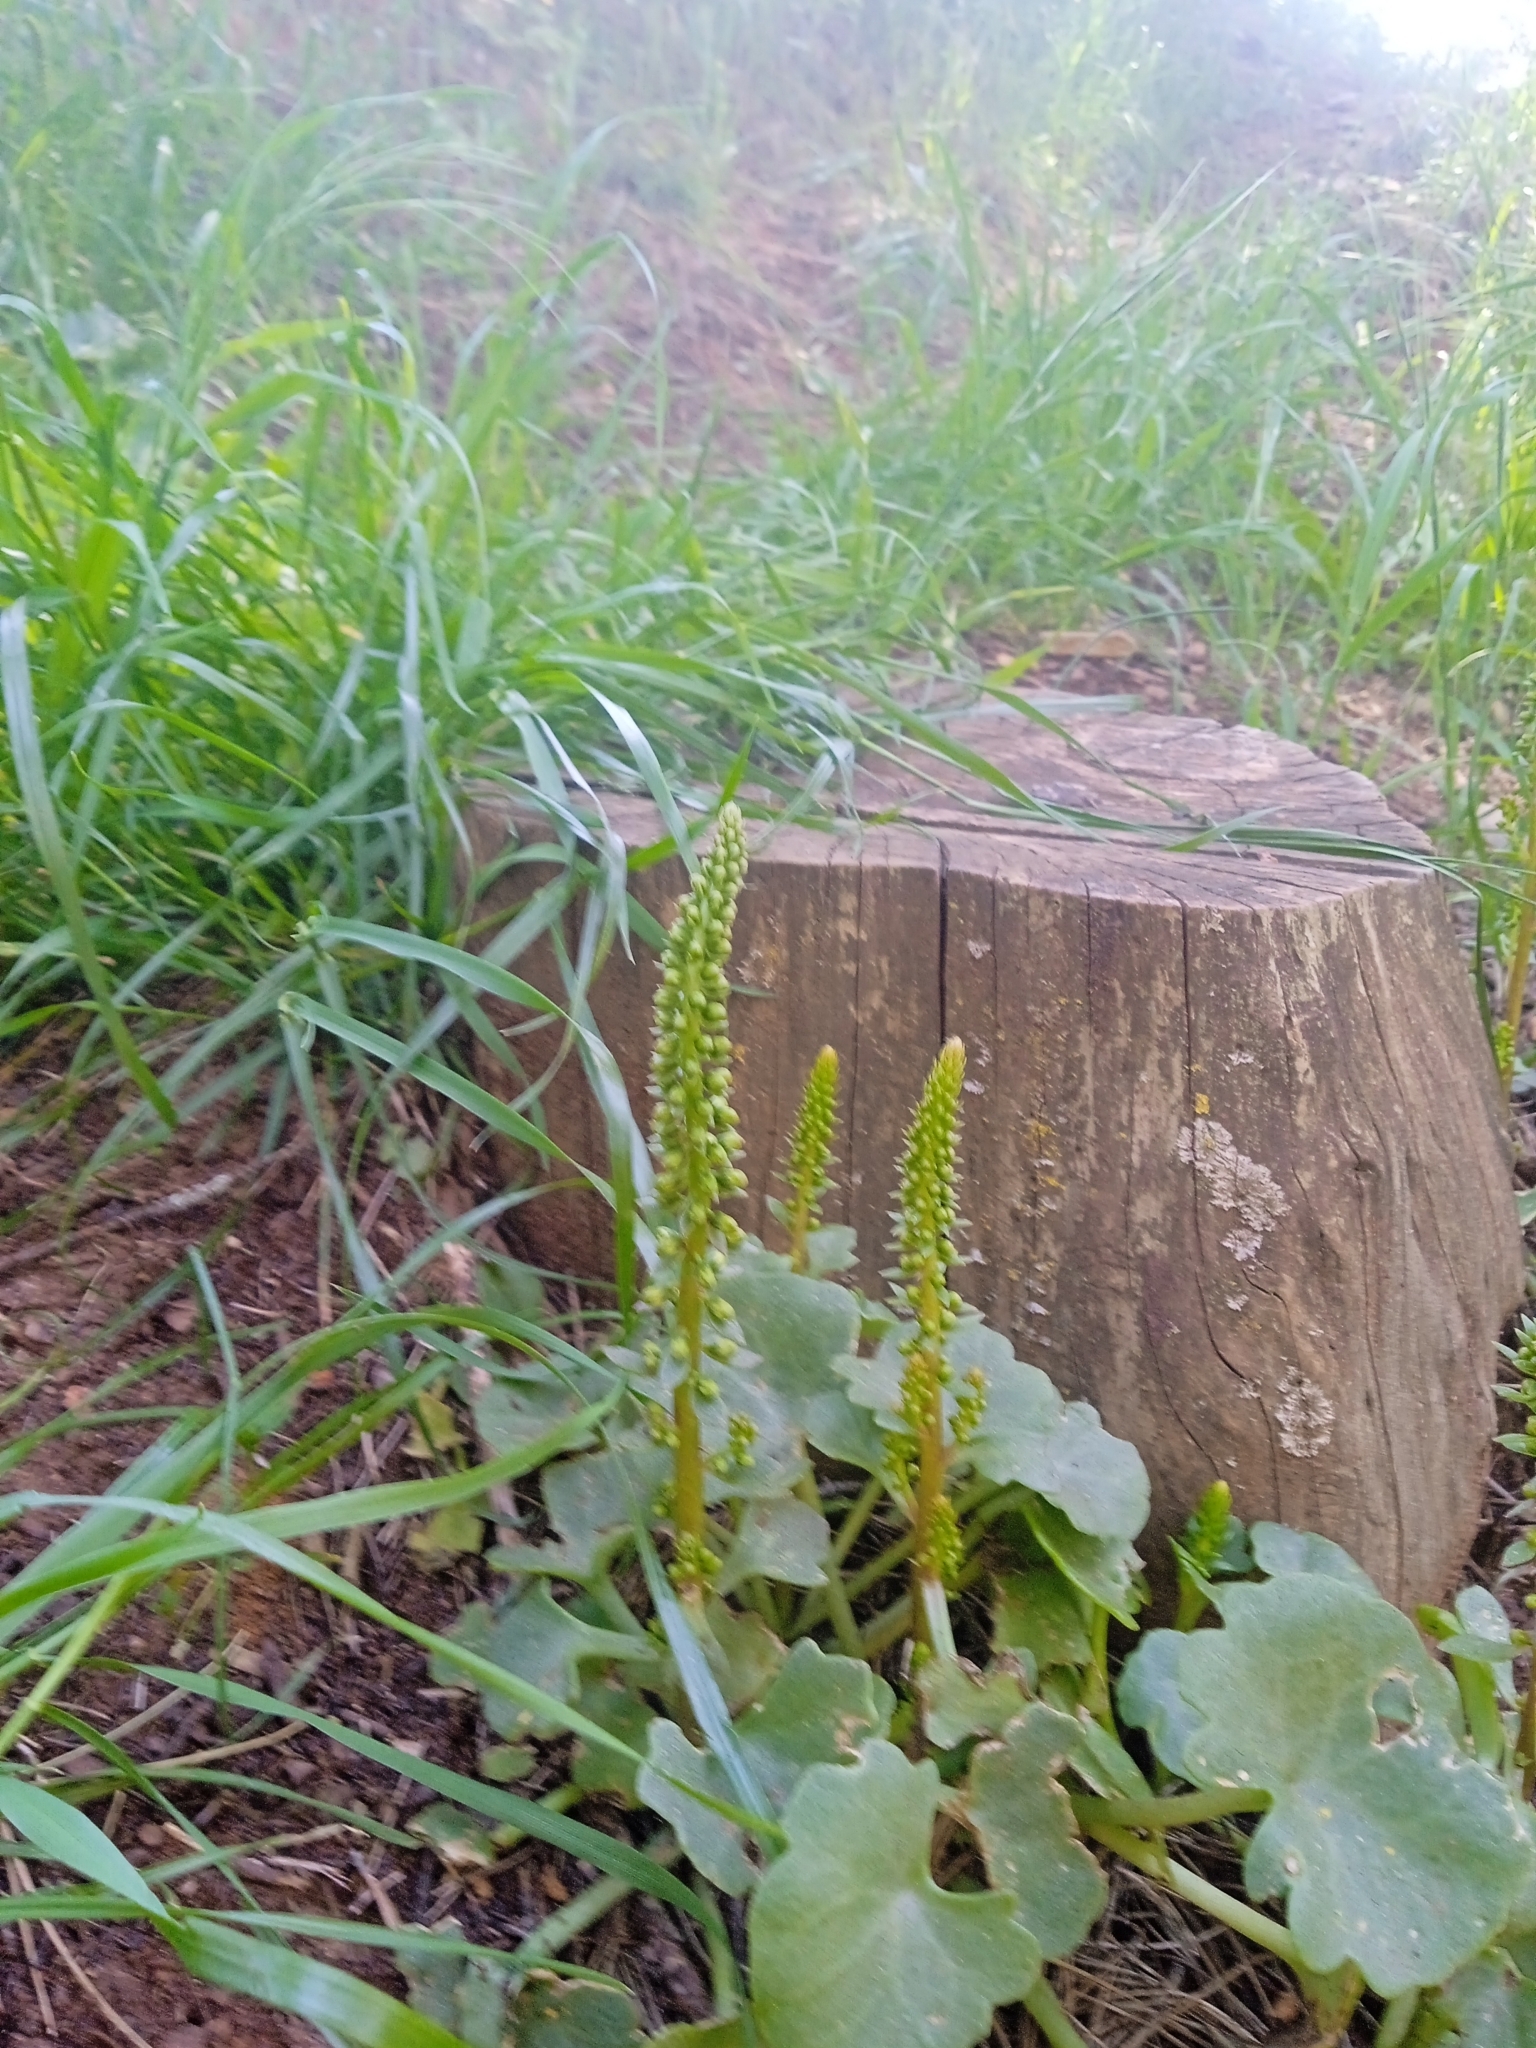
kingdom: Plantae
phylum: Tracheophyta
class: Magnoliopsida
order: Saxifragales
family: Crassulaceae
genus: Umbilicus
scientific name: Umbilicus rupestris
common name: Navelwort
